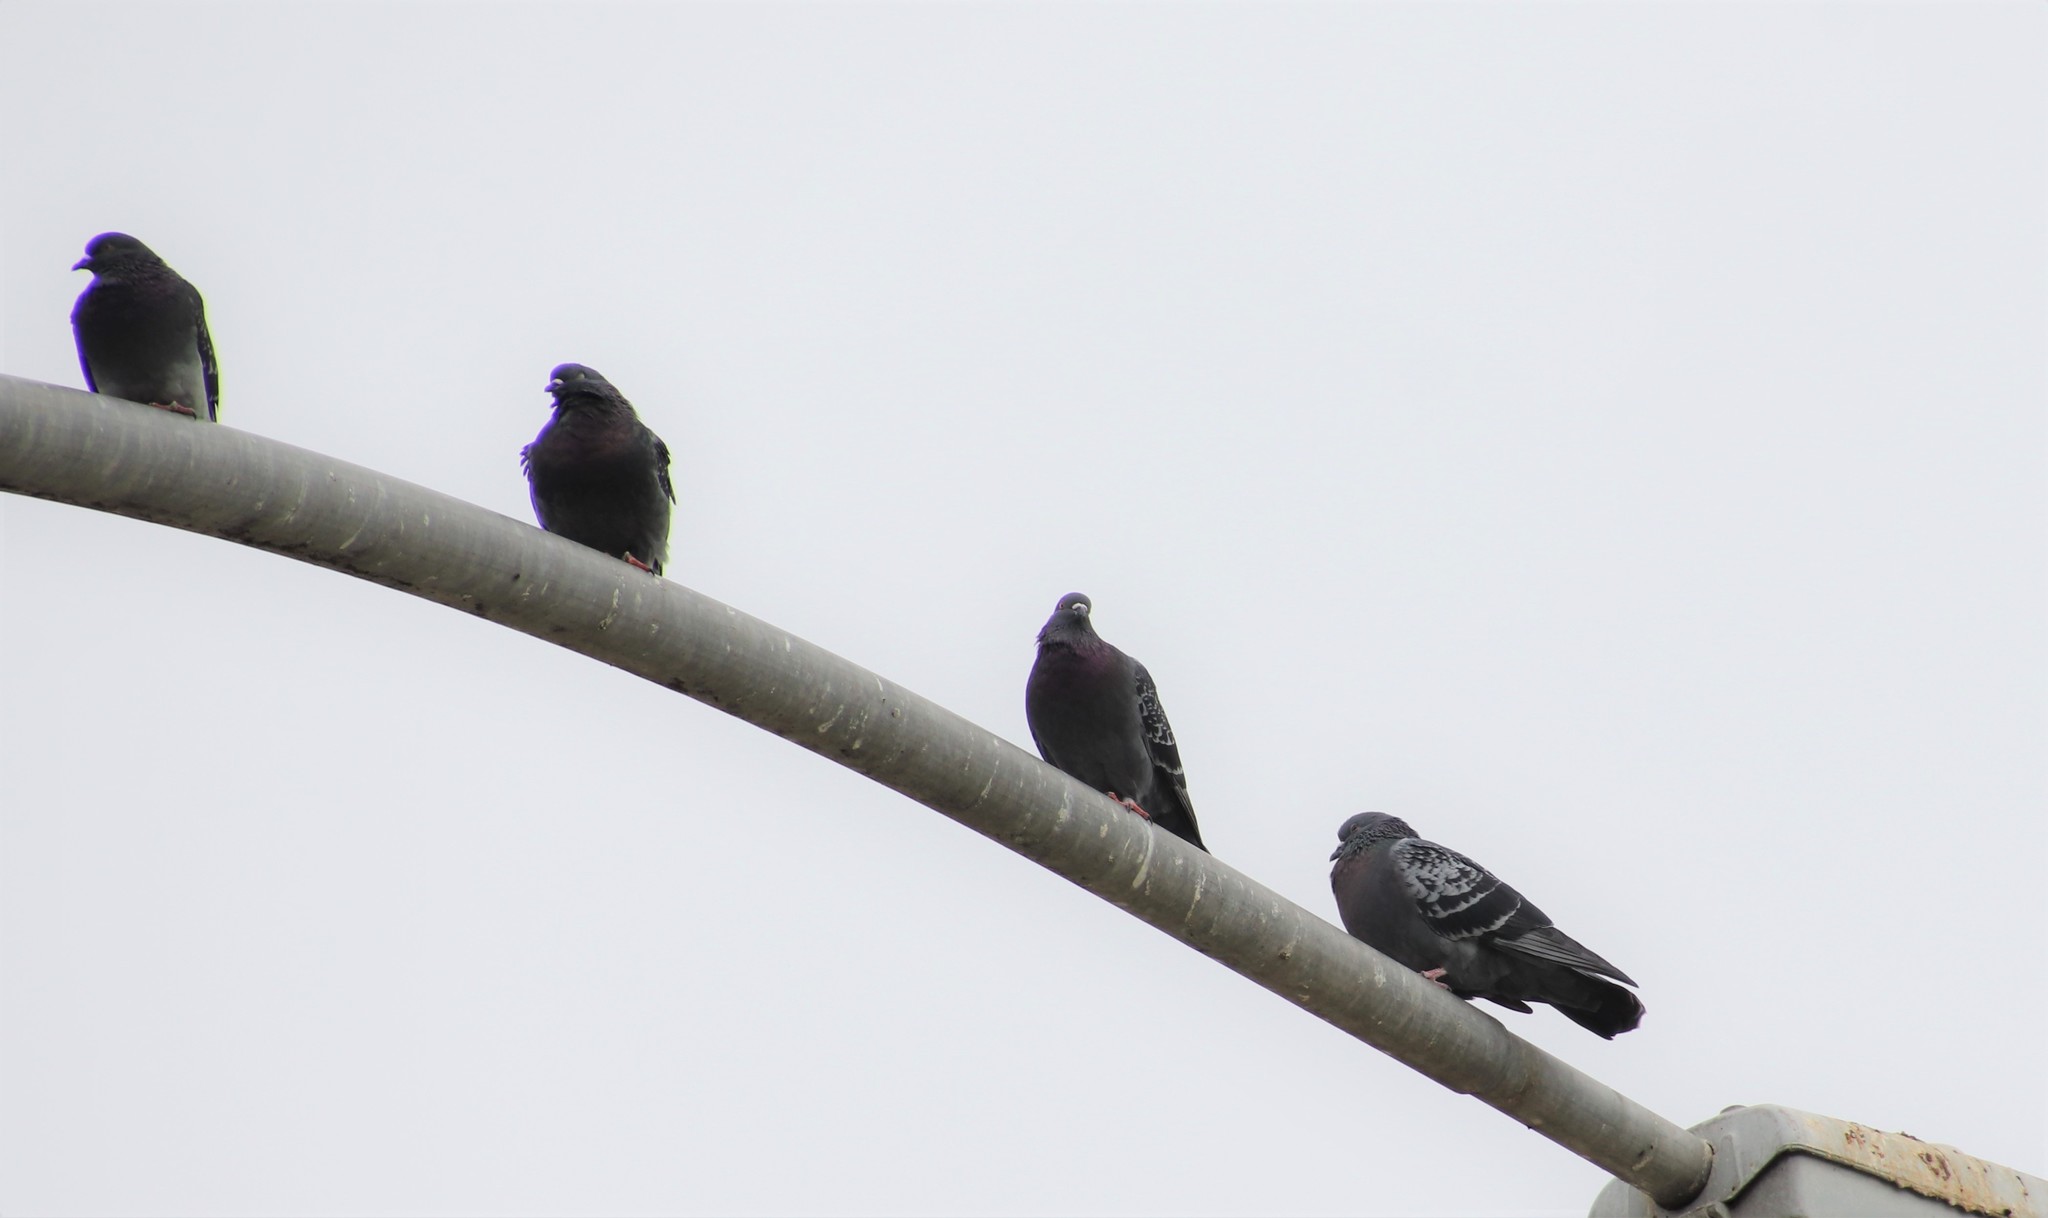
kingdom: Animalia
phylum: Chordata
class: Aves
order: Columbiformes
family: Columbidae
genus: Columba
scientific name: Columba livia
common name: Rock pigeon
